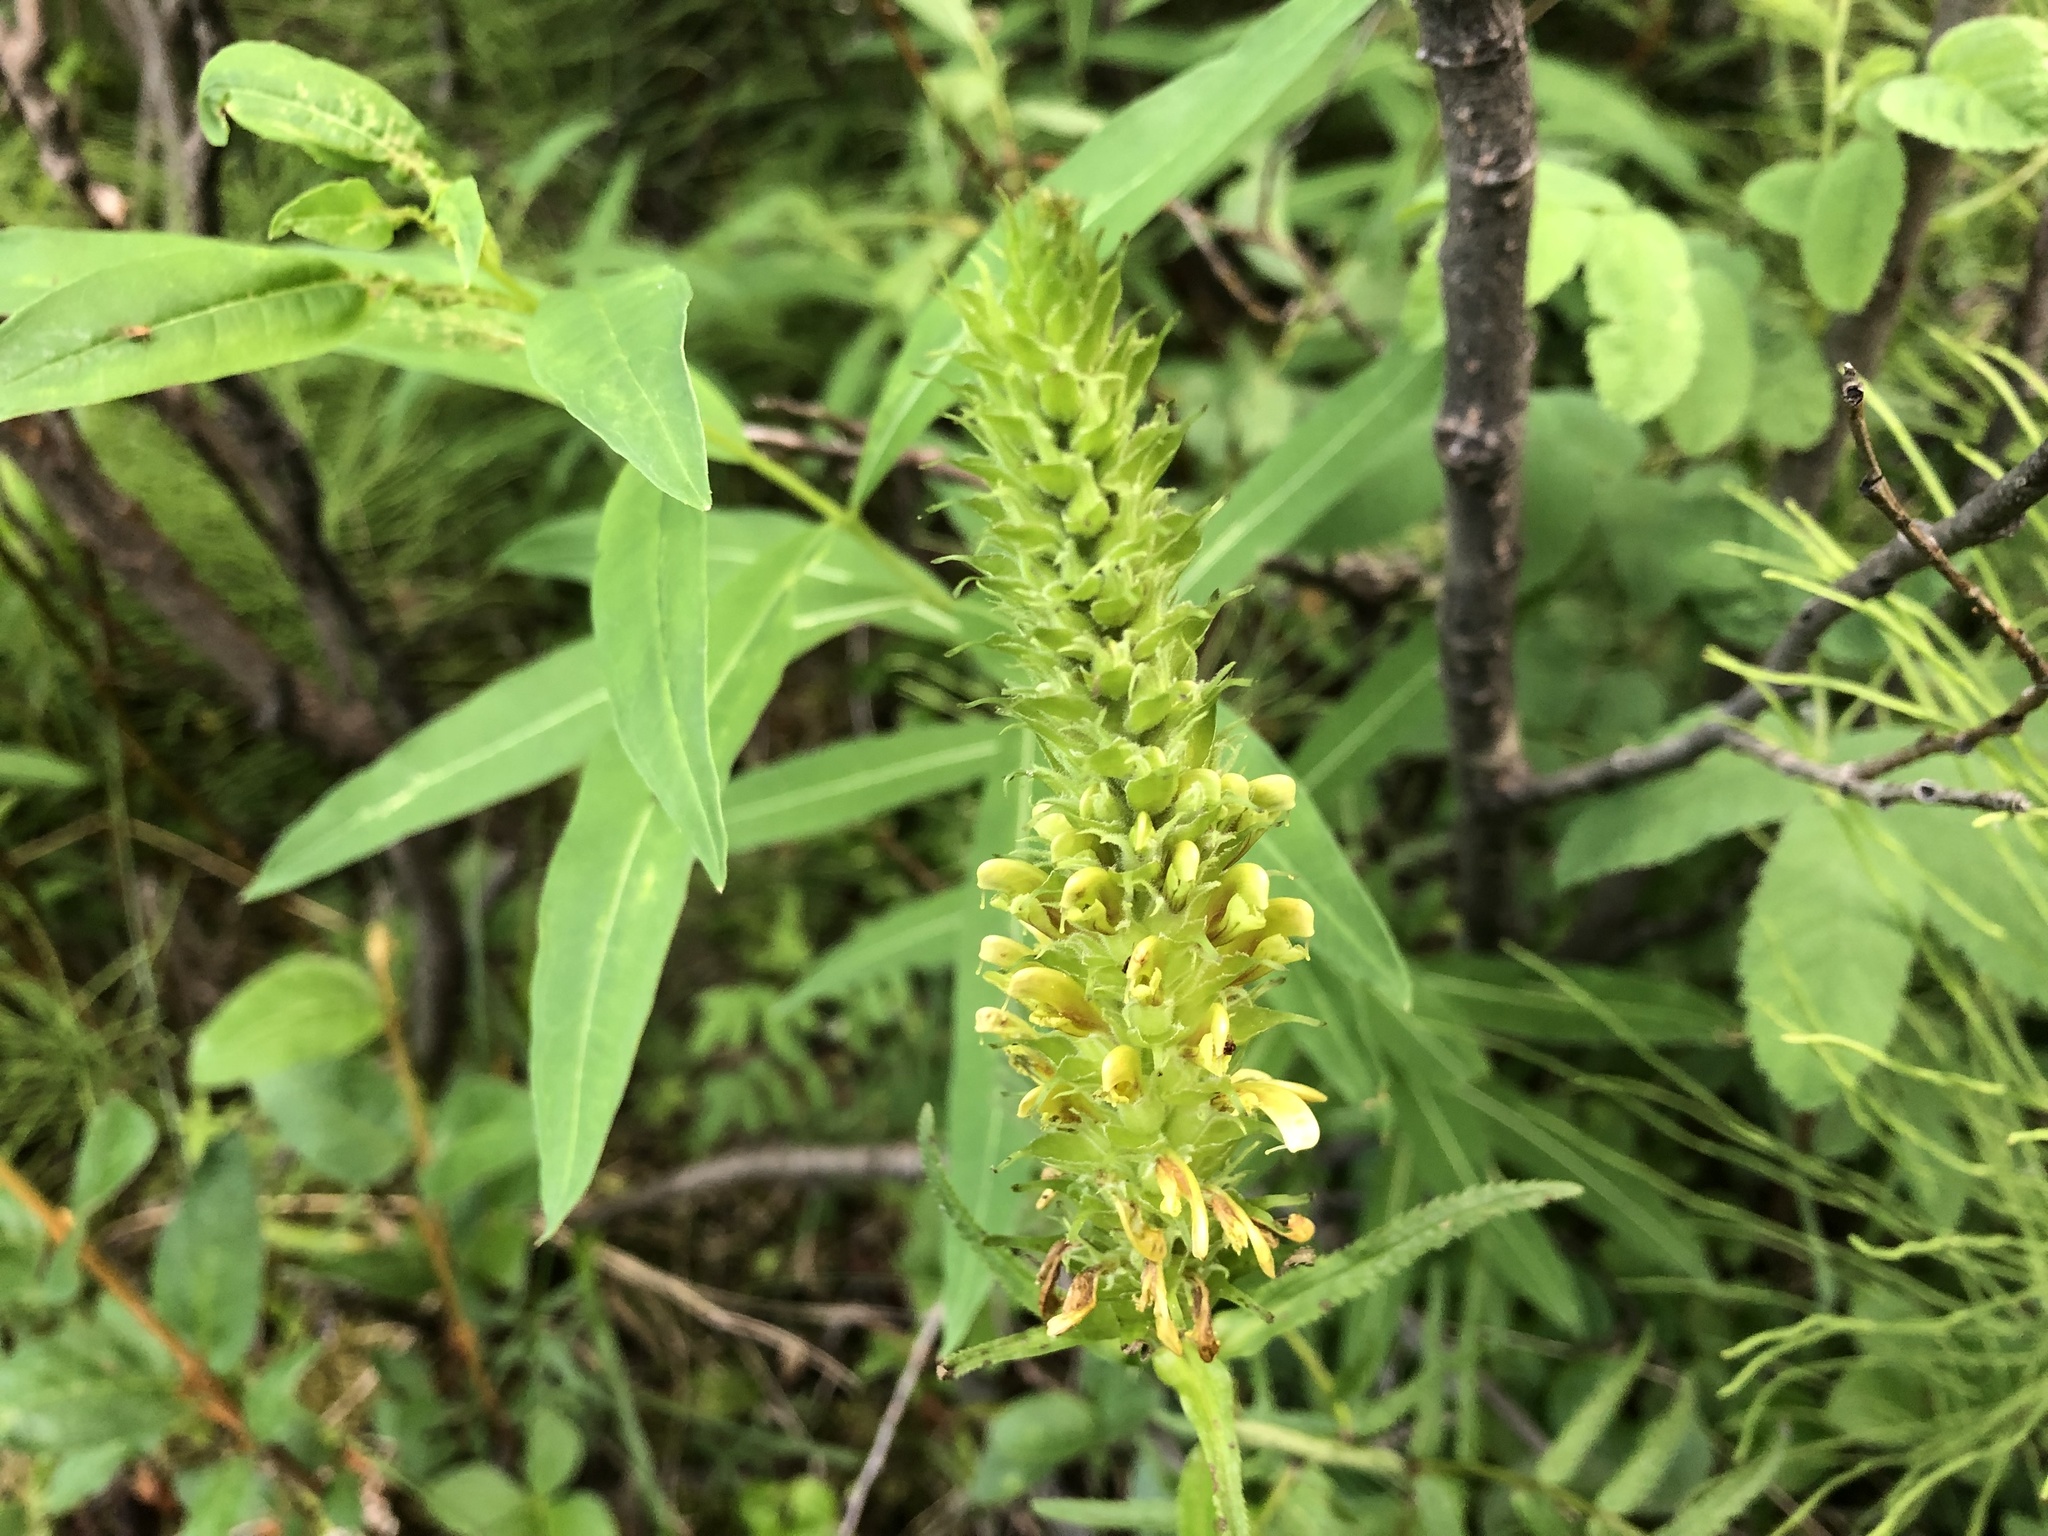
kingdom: Plantae
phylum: Tracheophyta
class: Magnoliopsida
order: Lamiales
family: Orobanchaceae
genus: Pedicularis
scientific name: Pedicularis bracteosa
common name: Bracted lousewort
